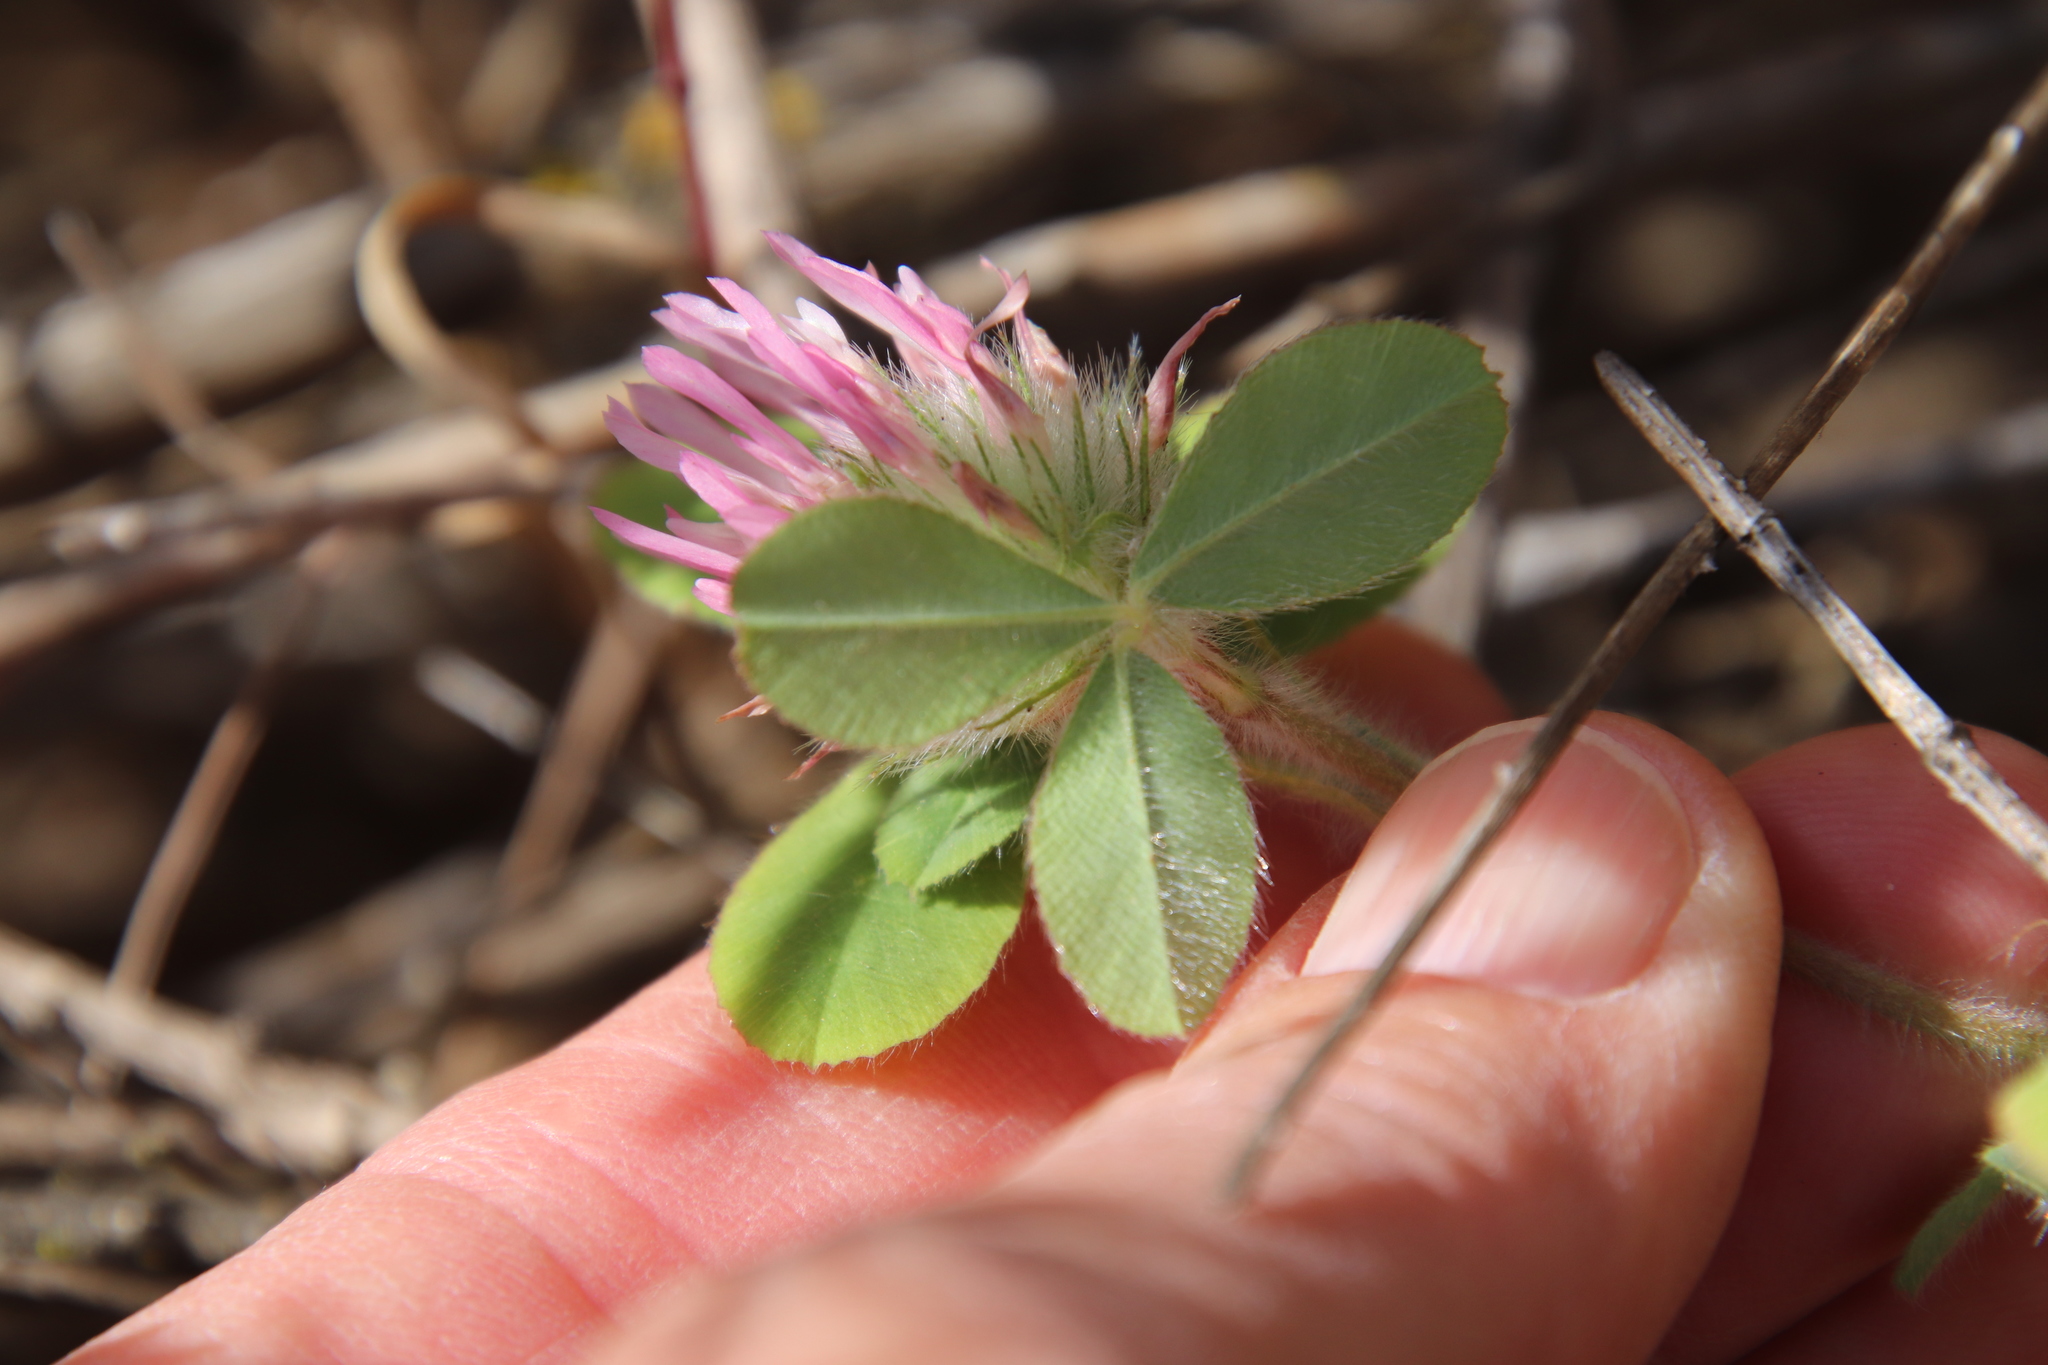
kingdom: Plantae
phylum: Tracheophyta
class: Magnoliopsida
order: Fabales
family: Fabaceae
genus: Trifolium
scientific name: Trifolium hirtum
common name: Rose clover
